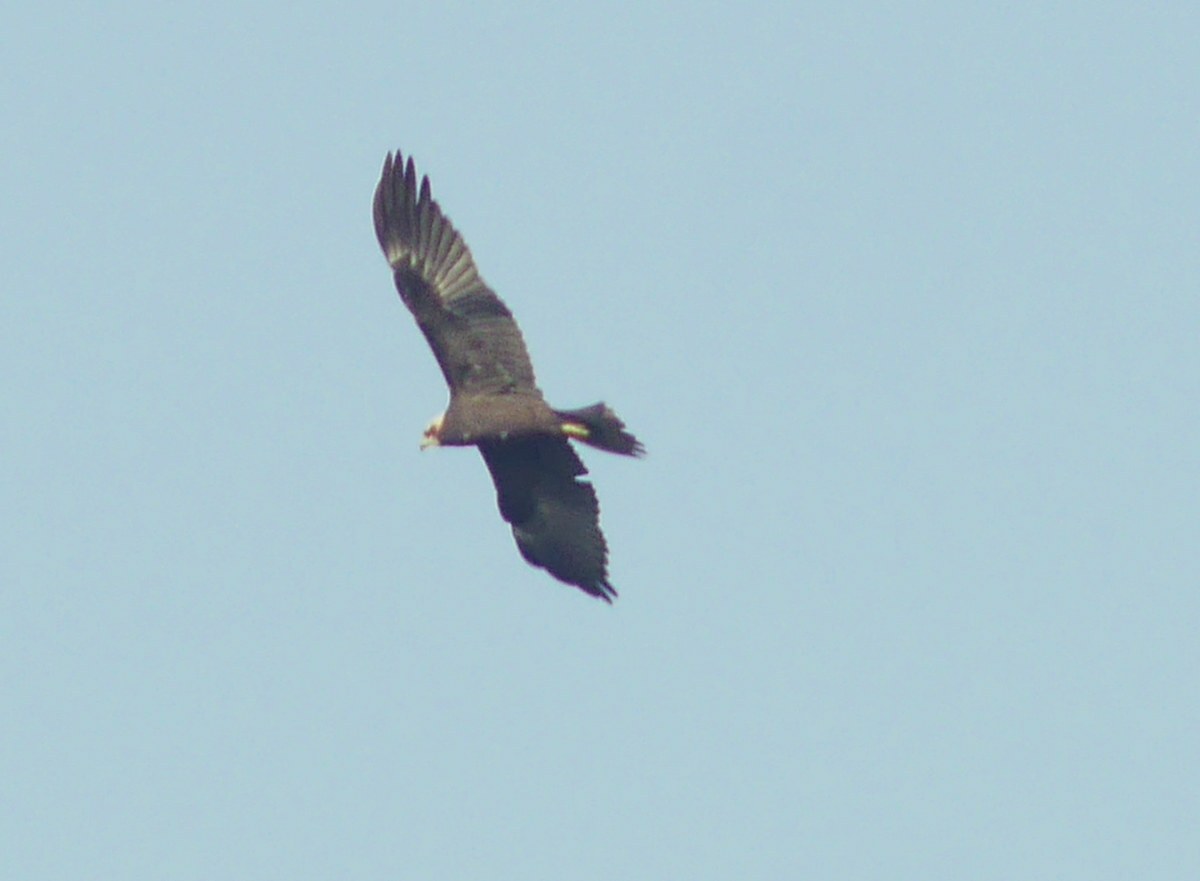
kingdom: Animalia
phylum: Chordata
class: Aves
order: Accipitriformes
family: Accipitridae
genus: Circus
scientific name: Circus aeruginosus
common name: Western marsh harrier
